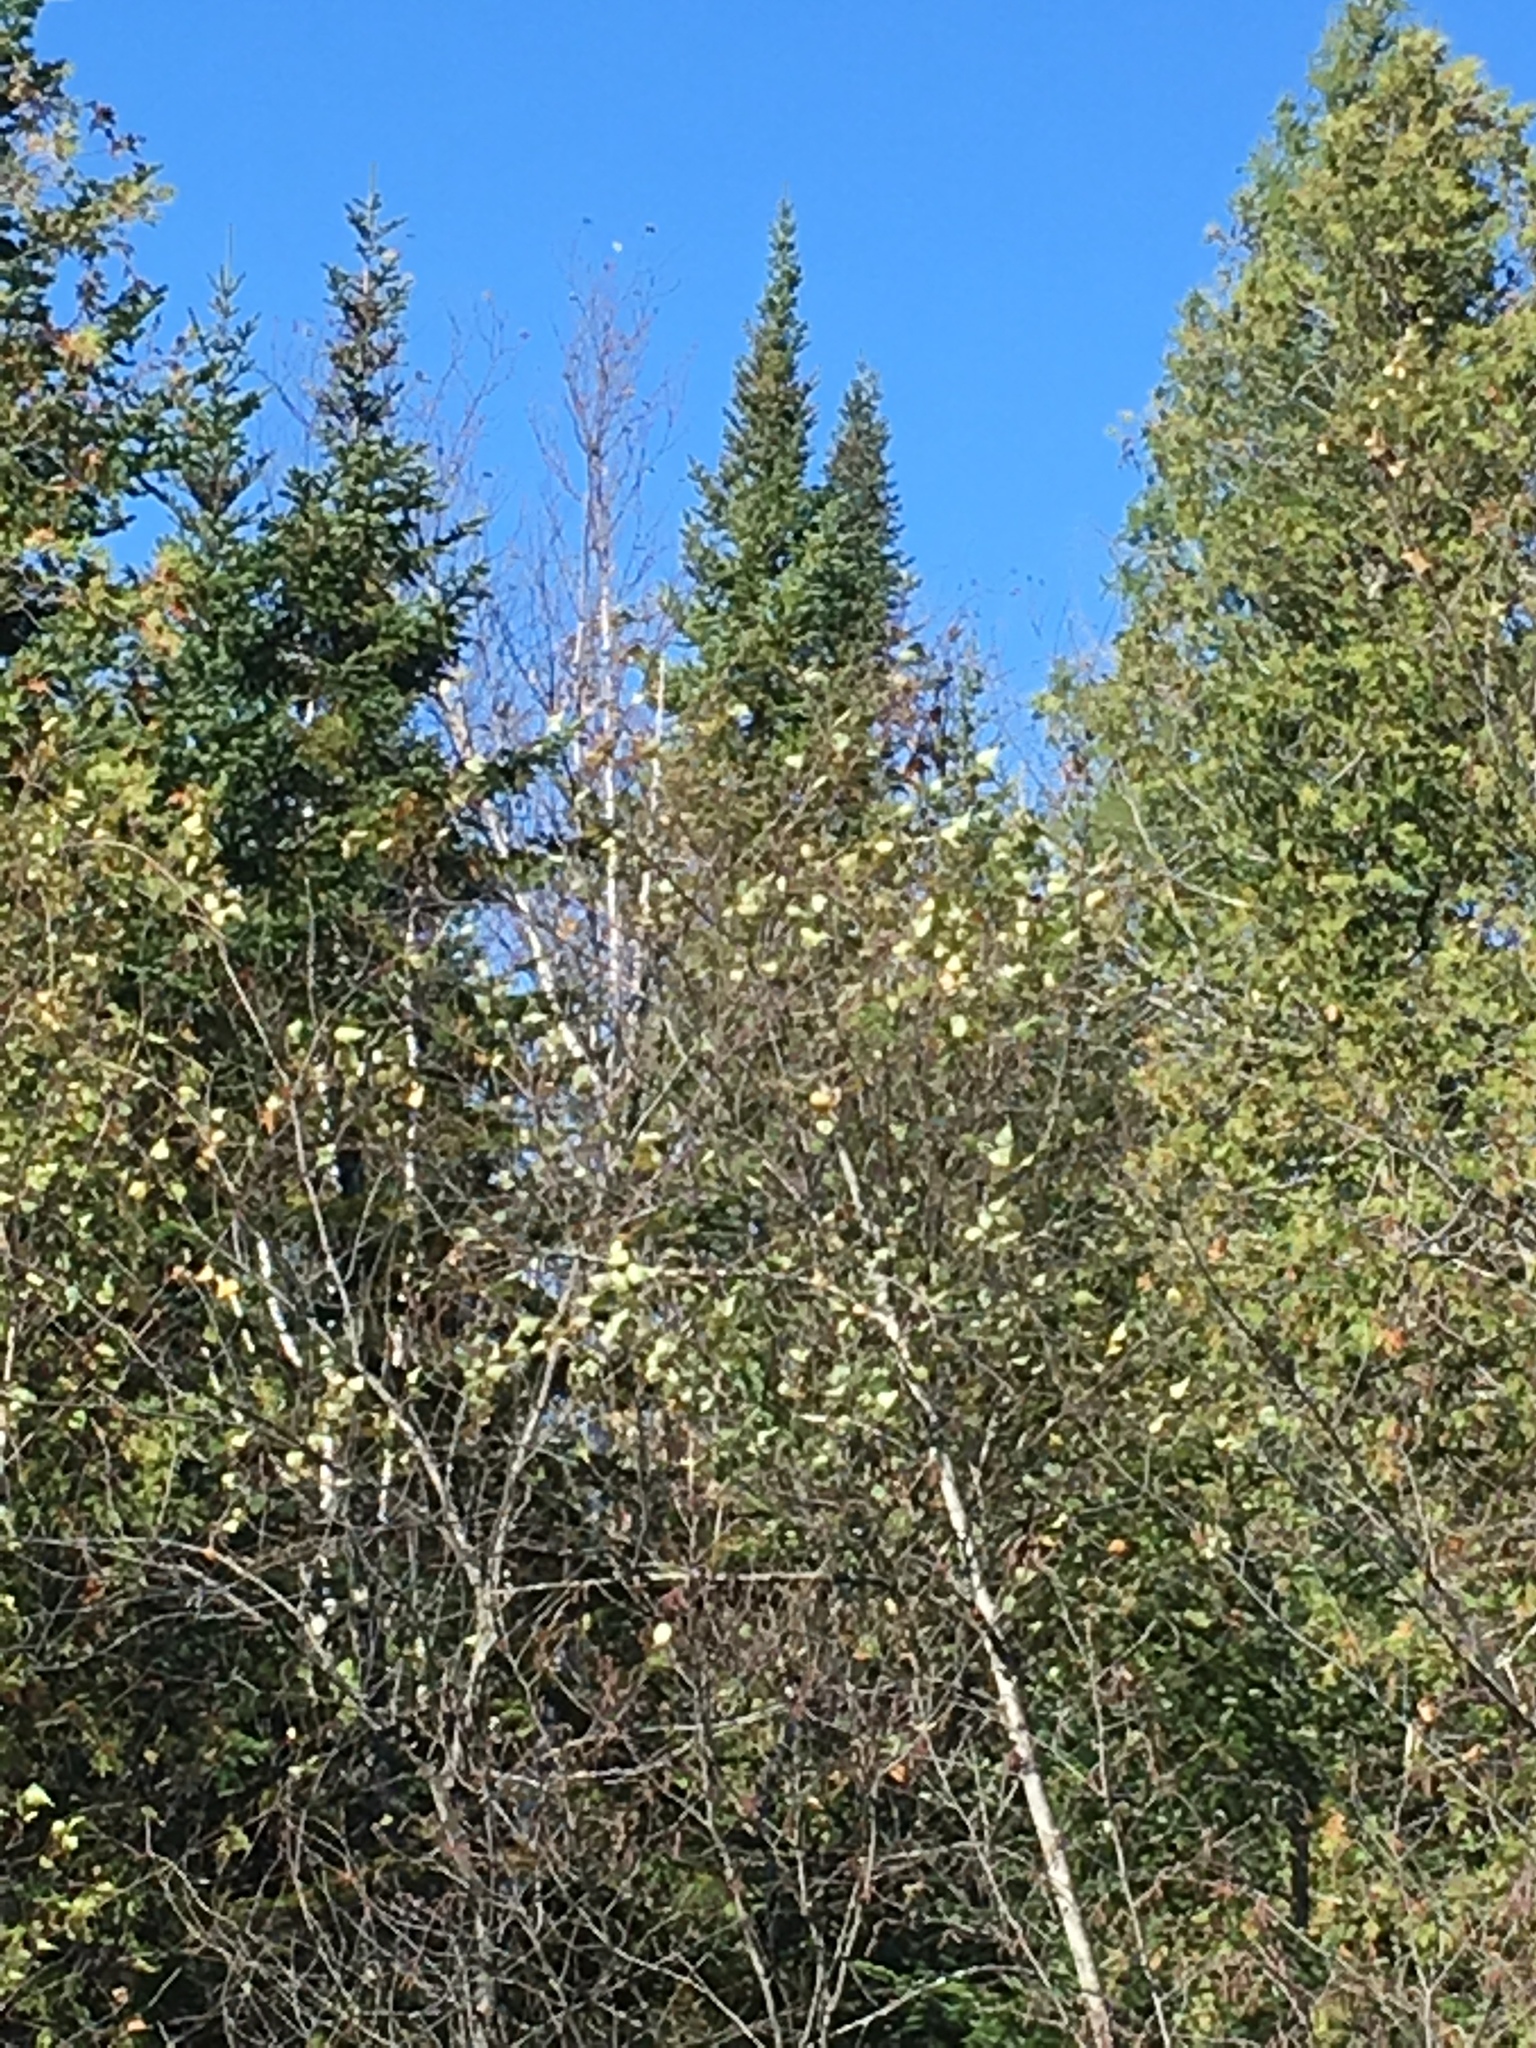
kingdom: Plantae
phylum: Tracheophyta
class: Pinopsida
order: Pinales
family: Pinaceae
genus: Abies
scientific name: Abies balsamea
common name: Balsam fir
